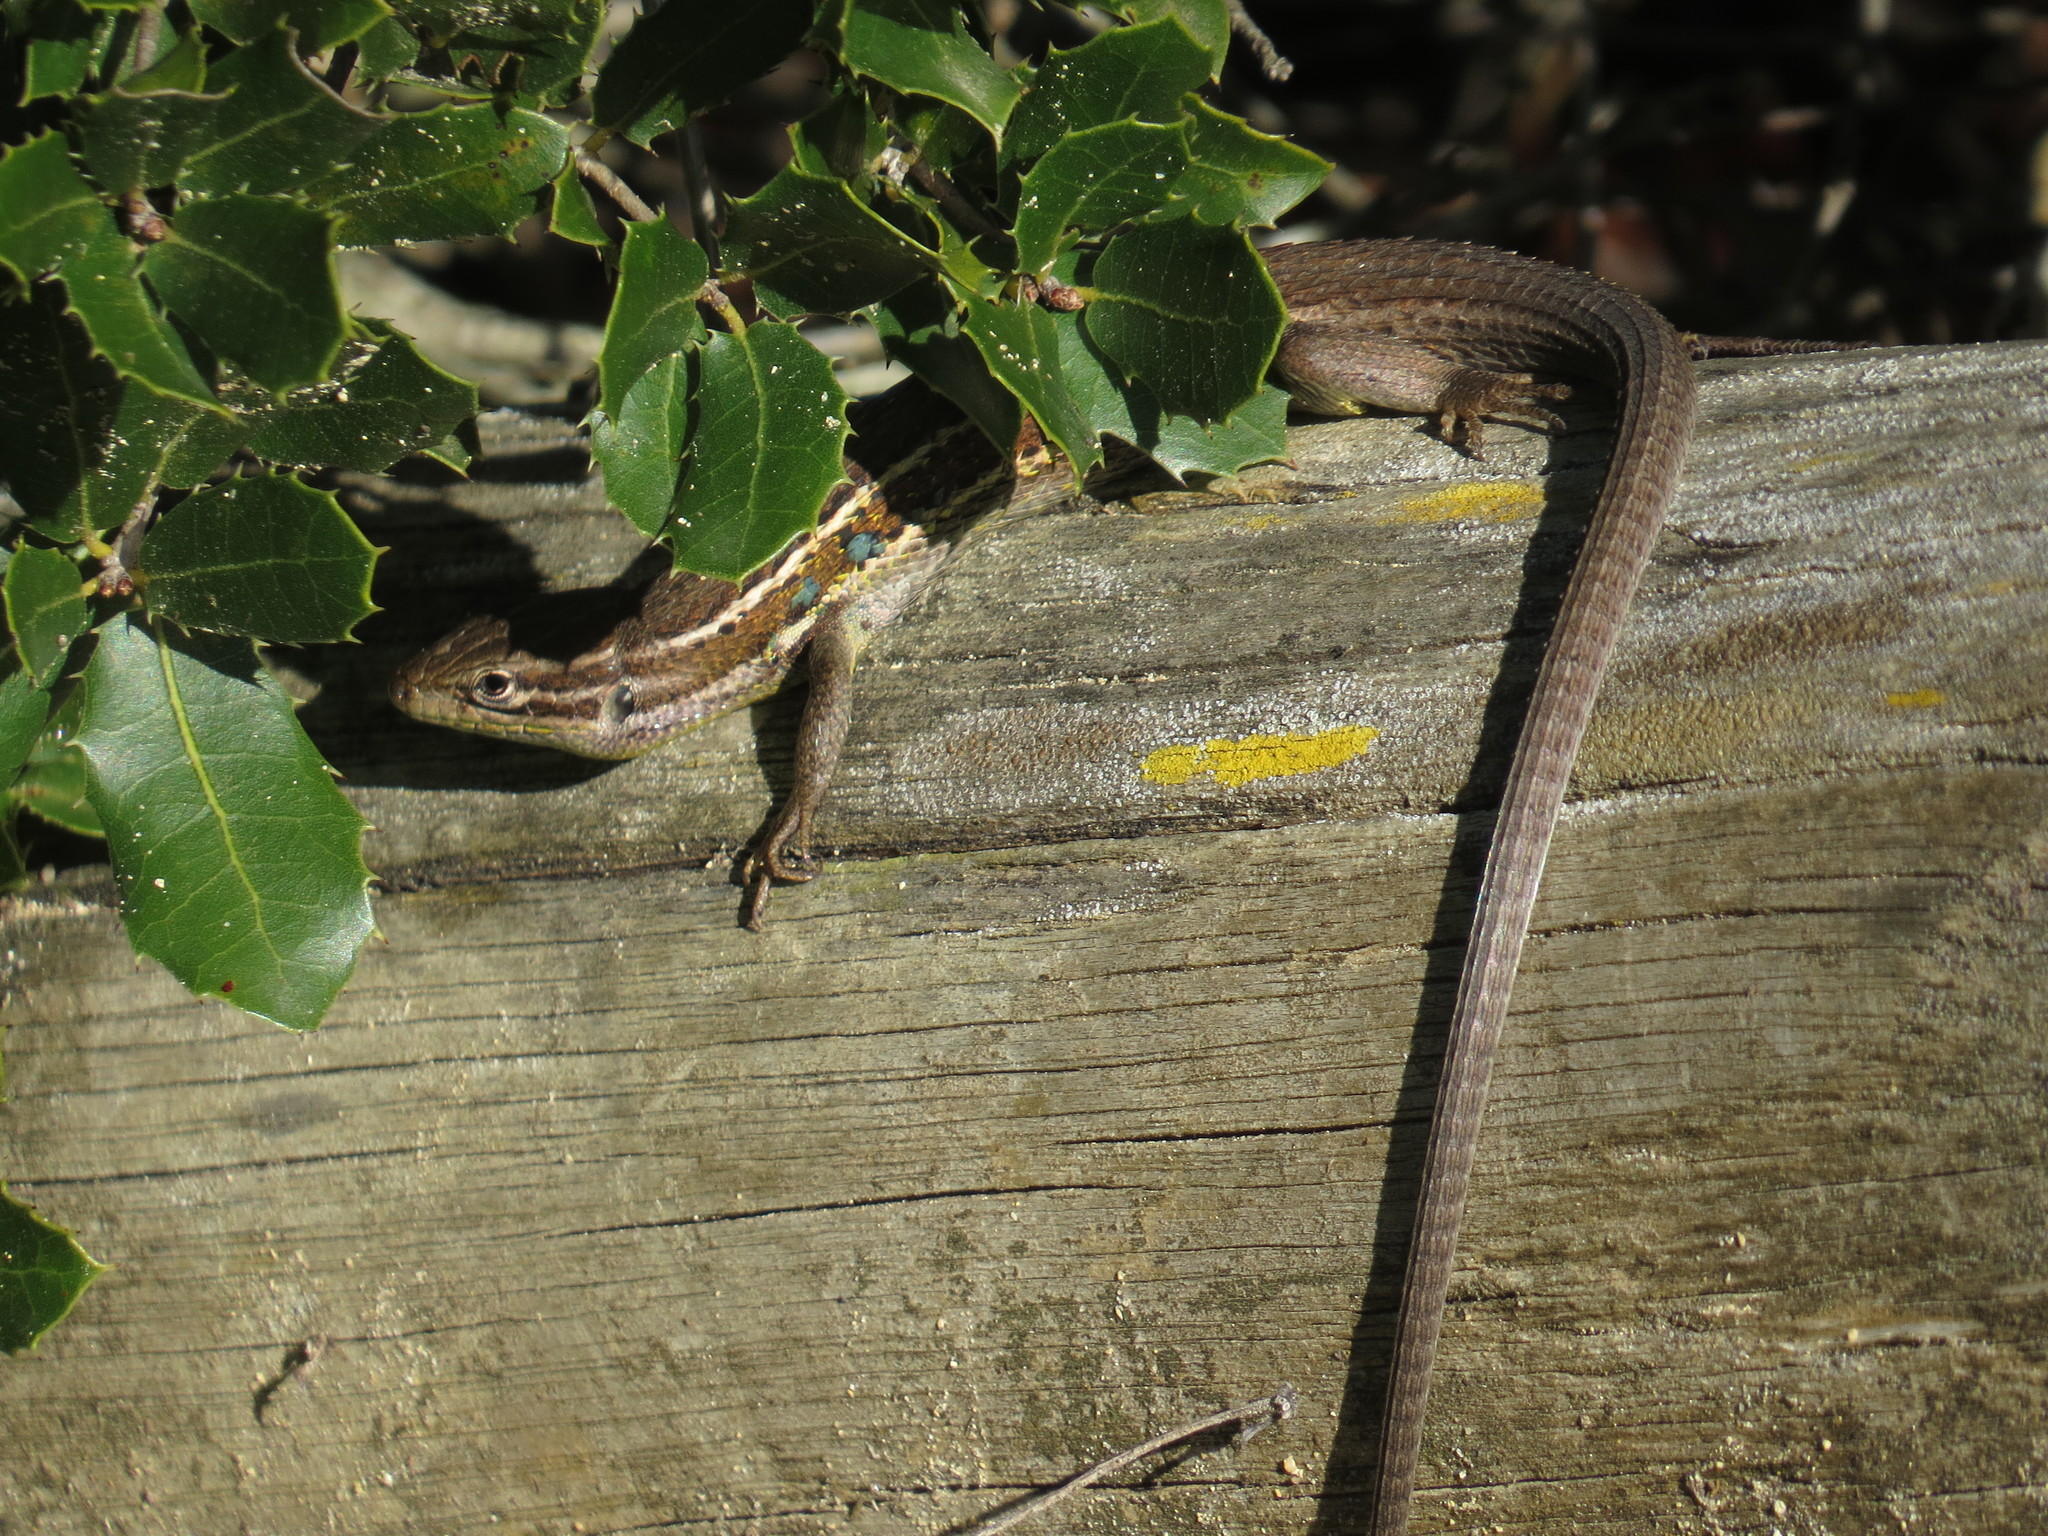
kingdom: Animalia
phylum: Chordata
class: Squamata
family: Lacertidae
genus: Psammodromus
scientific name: Psammodromus algirus
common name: Algerian psammodromus
